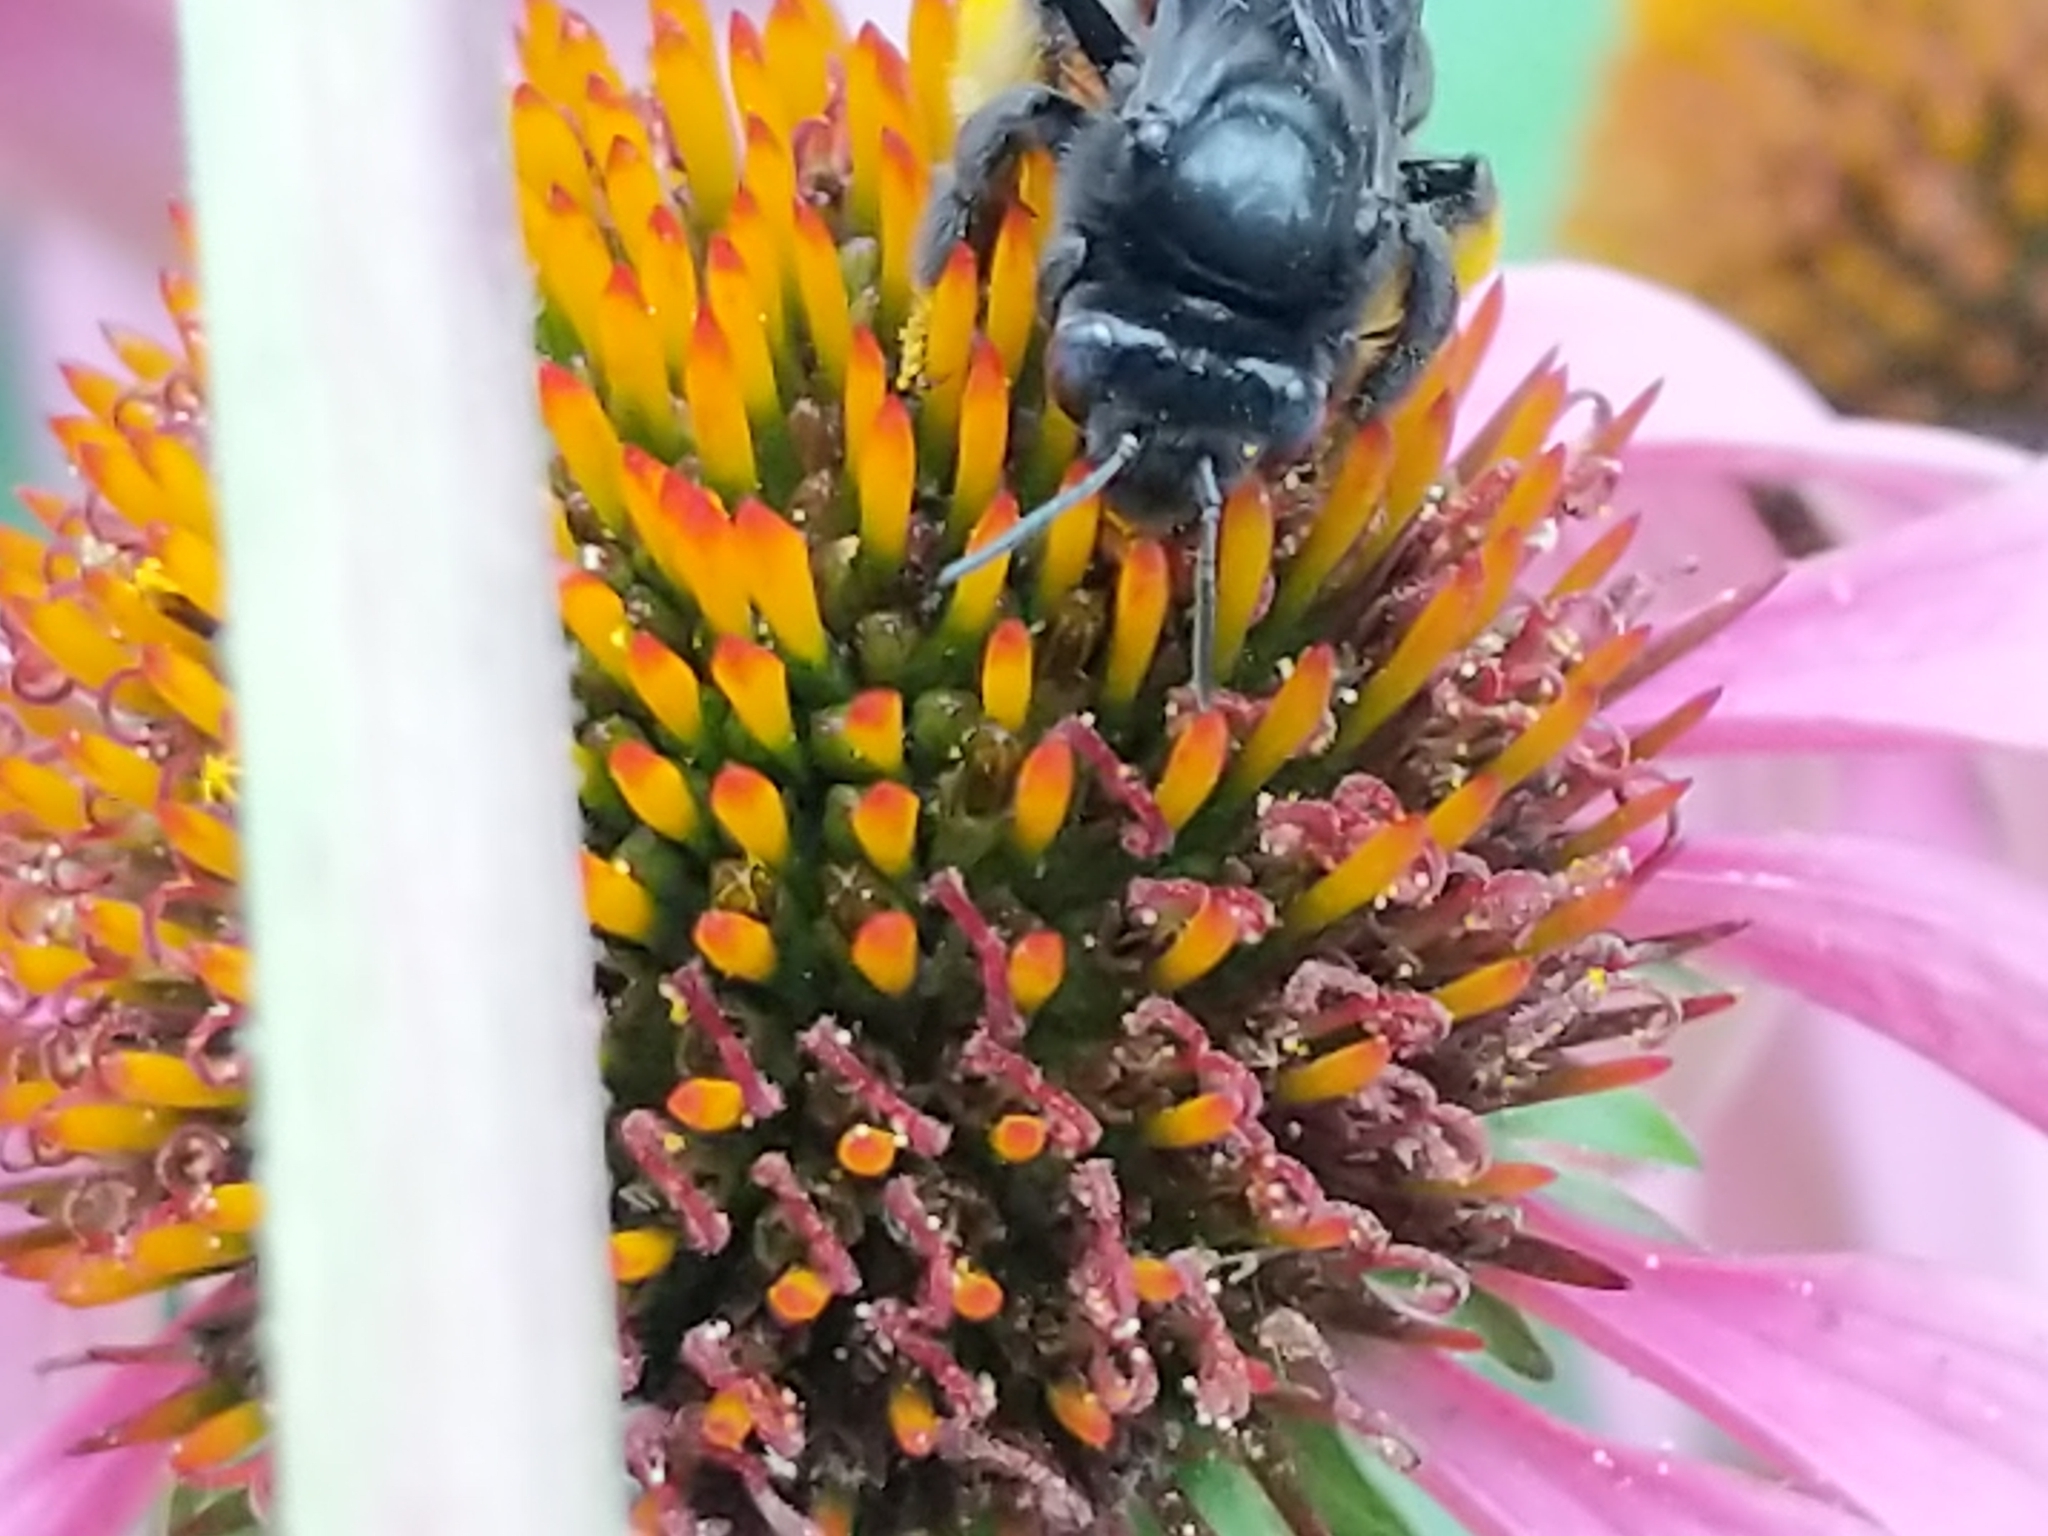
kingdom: Animalia
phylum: Arthropoda
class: Insecta
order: Hymenoptera
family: Apidae
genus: Melissodes
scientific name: Melissodes bimaculatus
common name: Two-spotted long-horned bee
